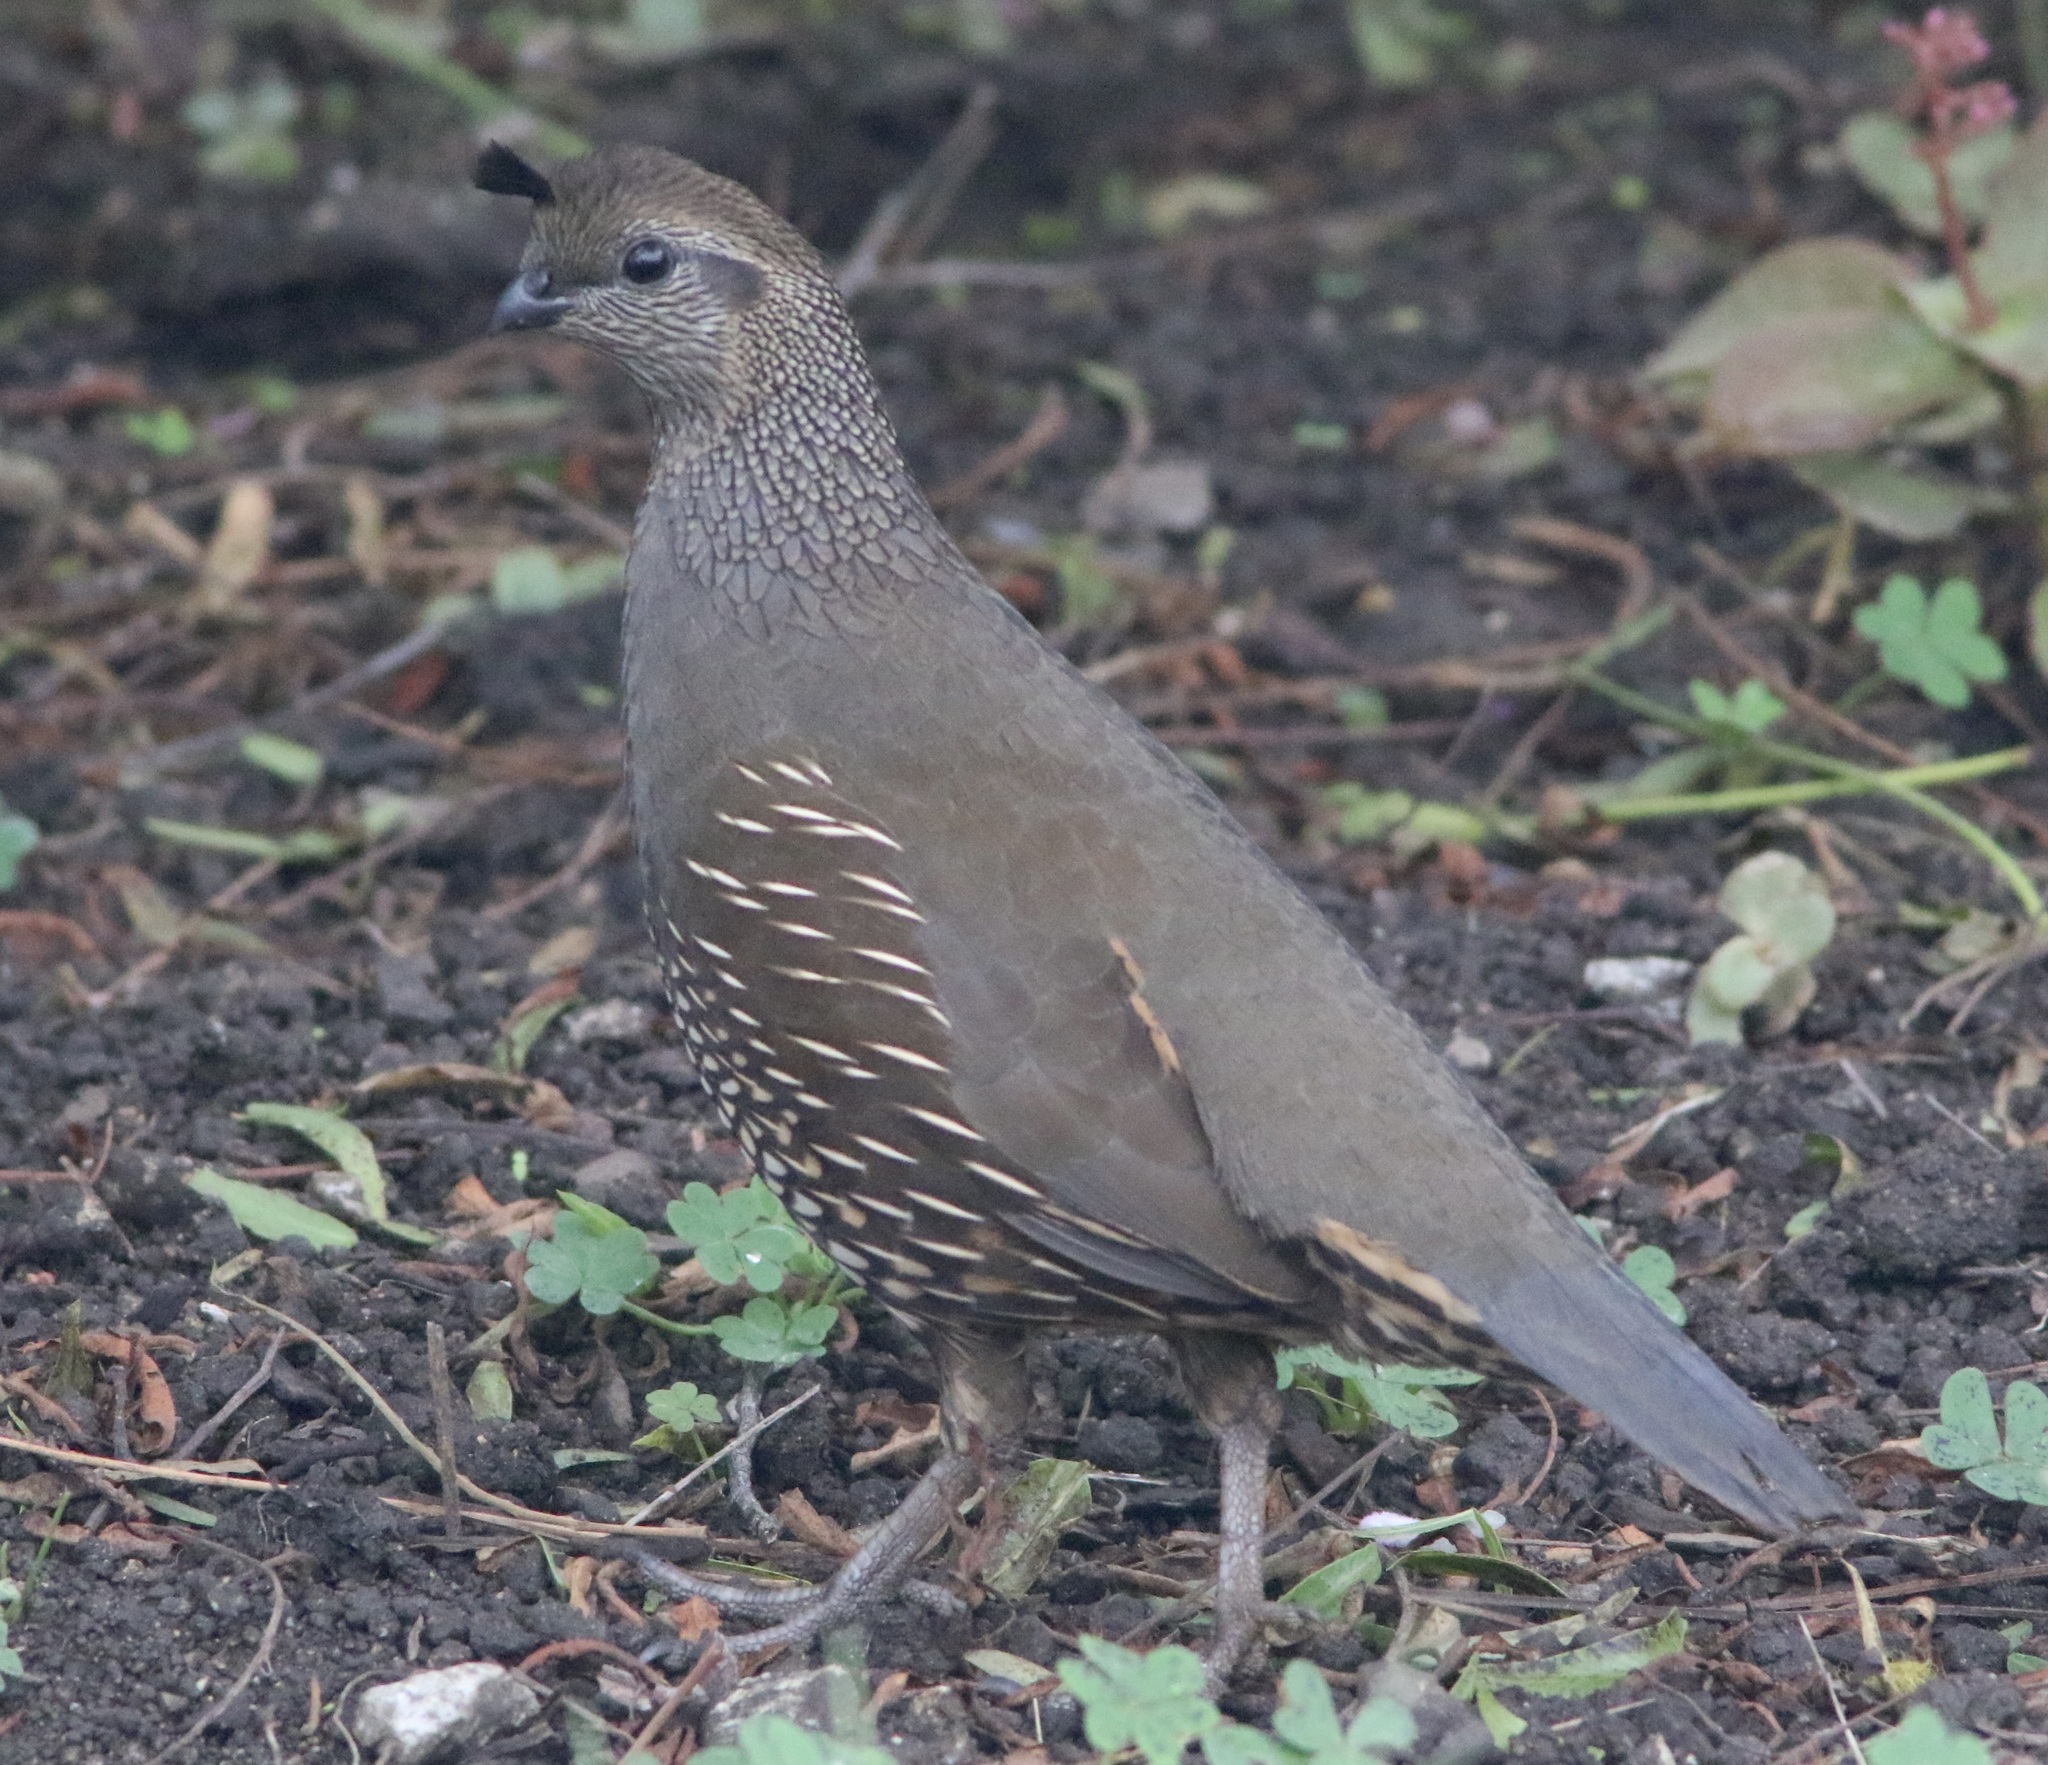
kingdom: Animalia
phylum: Chordata
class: Aves
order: Galliformes
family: Odontophoridae
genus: Callipepla
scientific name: Callipepla californica
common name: California quail
